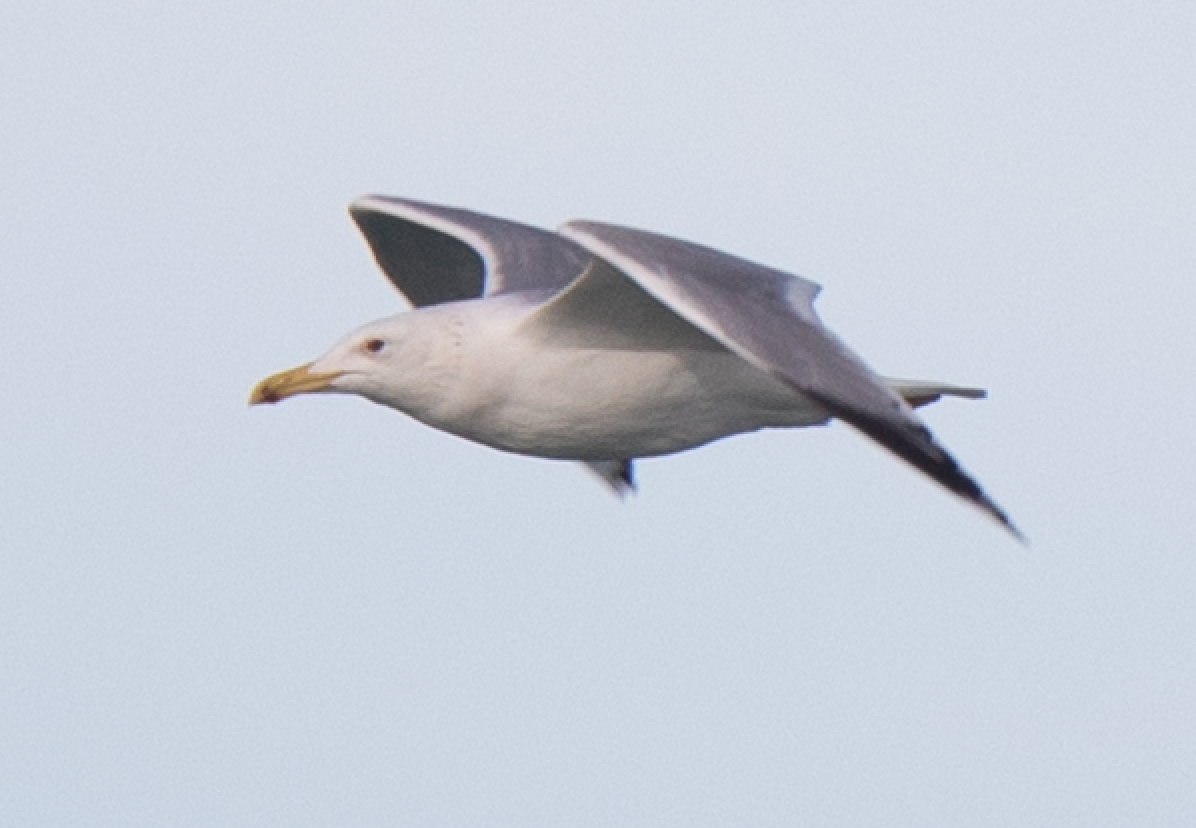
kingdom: Animalia
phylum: Chordata
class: Aves
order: Charadriiformes
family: Laridae
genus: Larus
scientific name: Larus cachinnans
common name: Caspian gull
